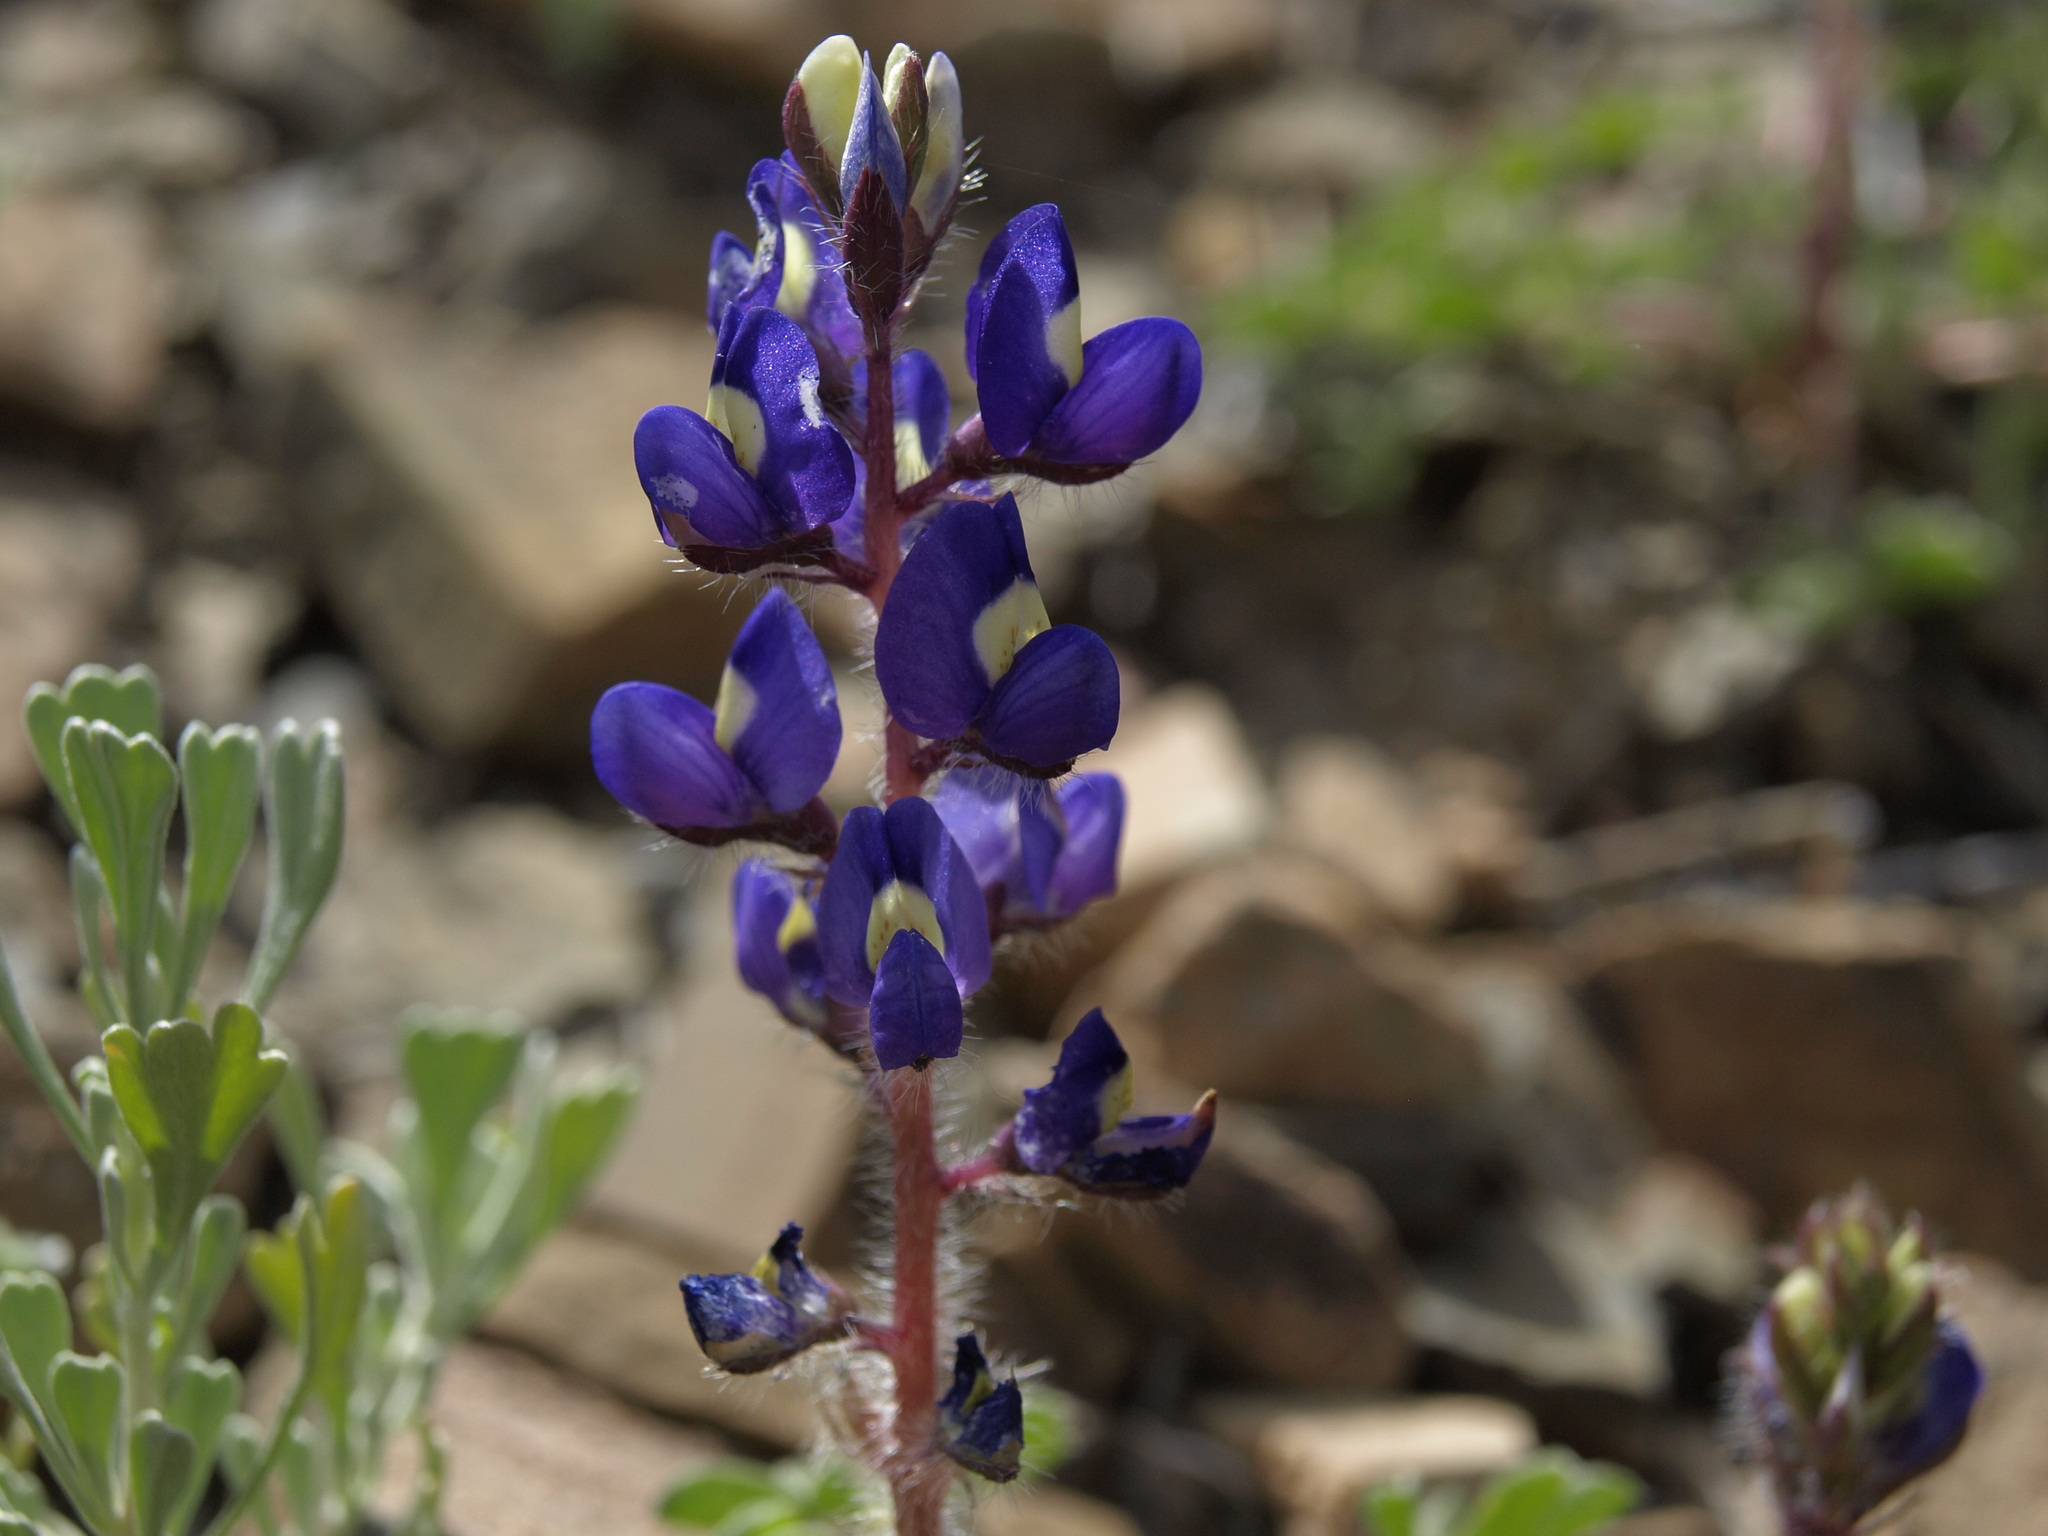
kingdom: Plantae
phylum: Tracheophyta
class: Magnoliopsida
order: Fabales
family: Fabaceae
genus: Lupinus
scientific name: Lupinus flavoculatus
